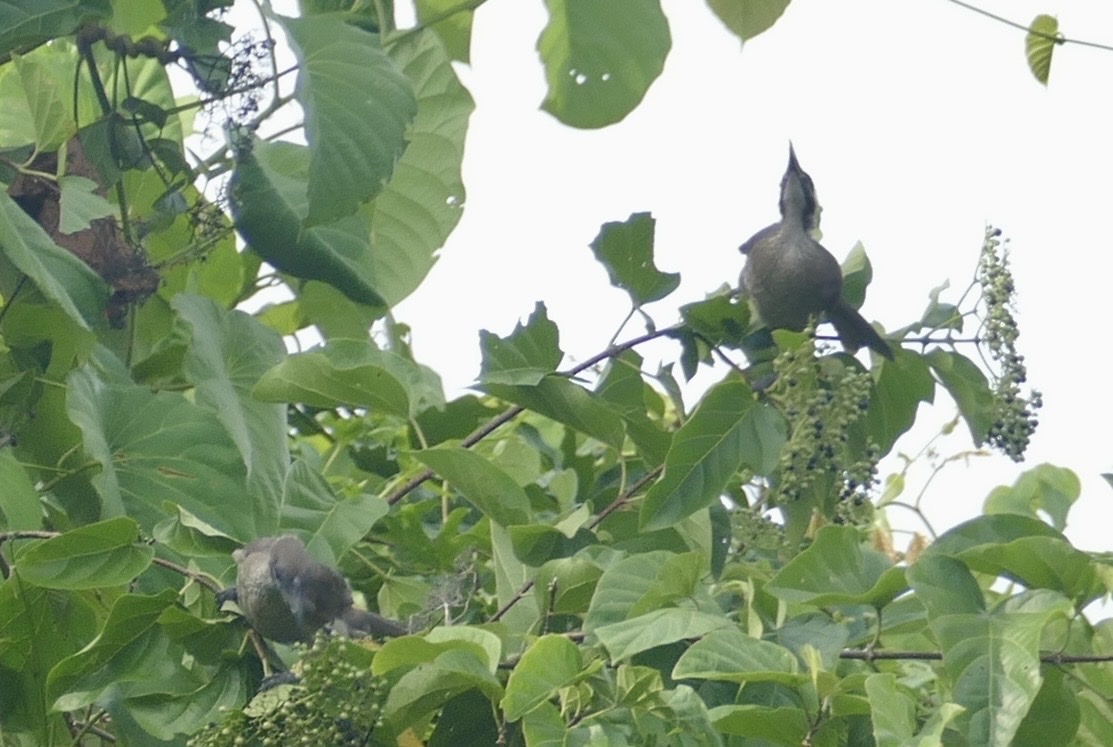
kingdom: Animalia
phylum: Chordata
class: Aves
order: Passeriformes
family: Meliphagidae
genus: Philemon
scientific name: Philemon buceroides
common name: Helmeted friarbird
